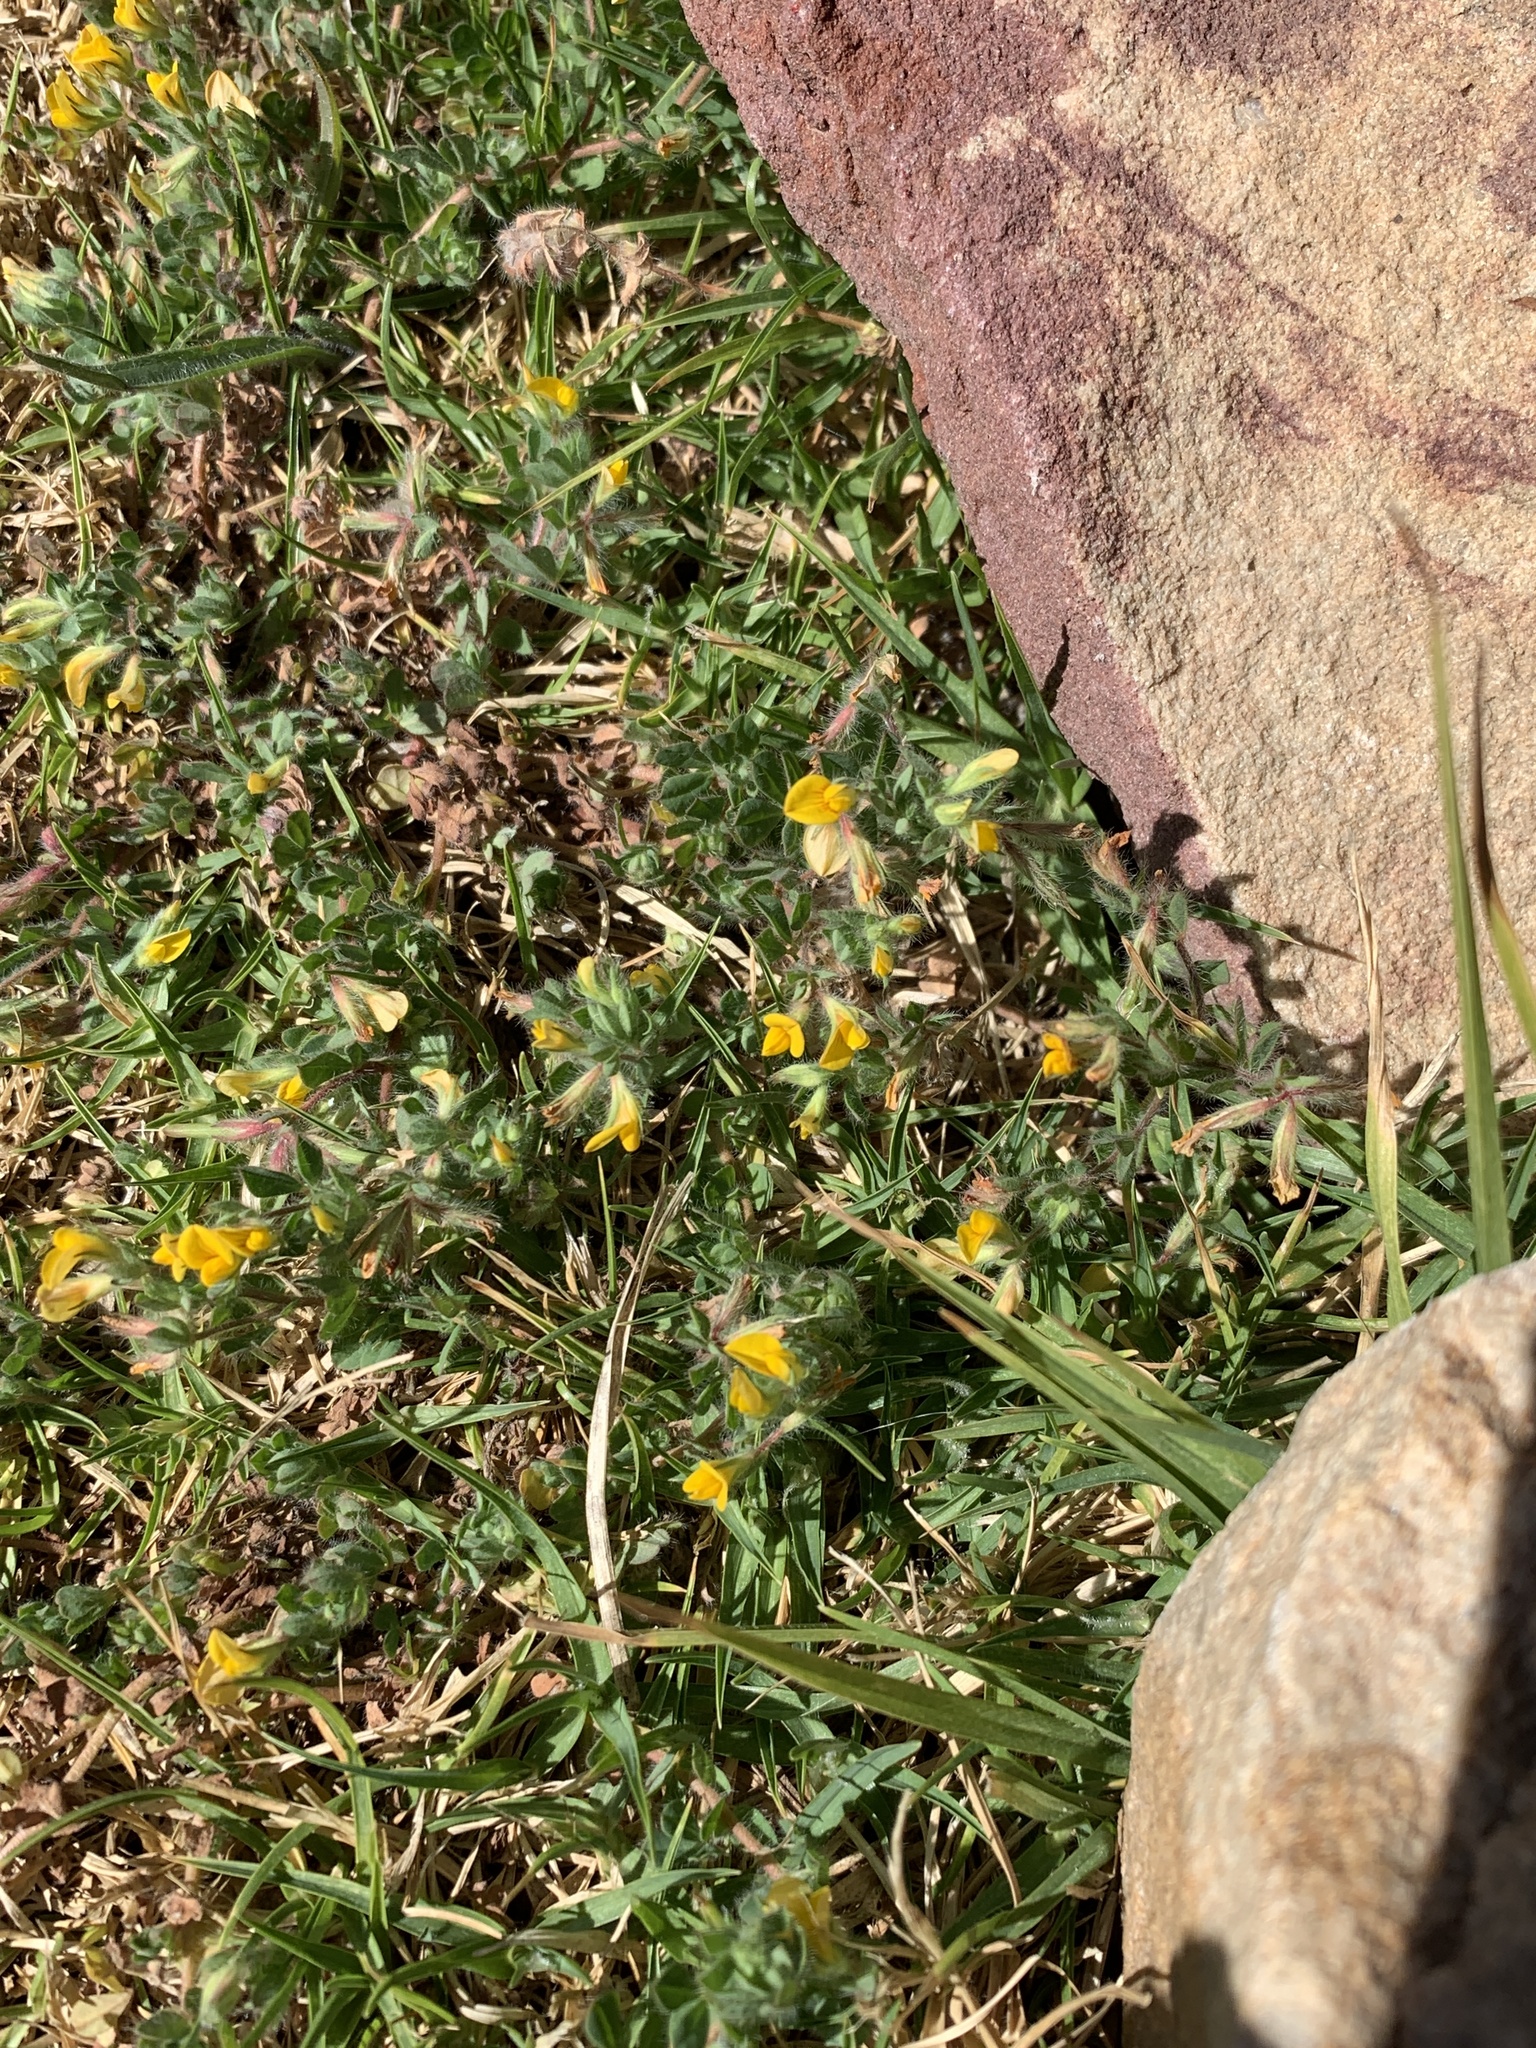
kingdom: Plantae
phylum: Tracheophyta
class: Magnoliopsida
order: Fabales
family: Fabaceae
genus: Lotus
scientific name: Lotus subbiflorus
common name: Hairy bird's-foot trefoil
